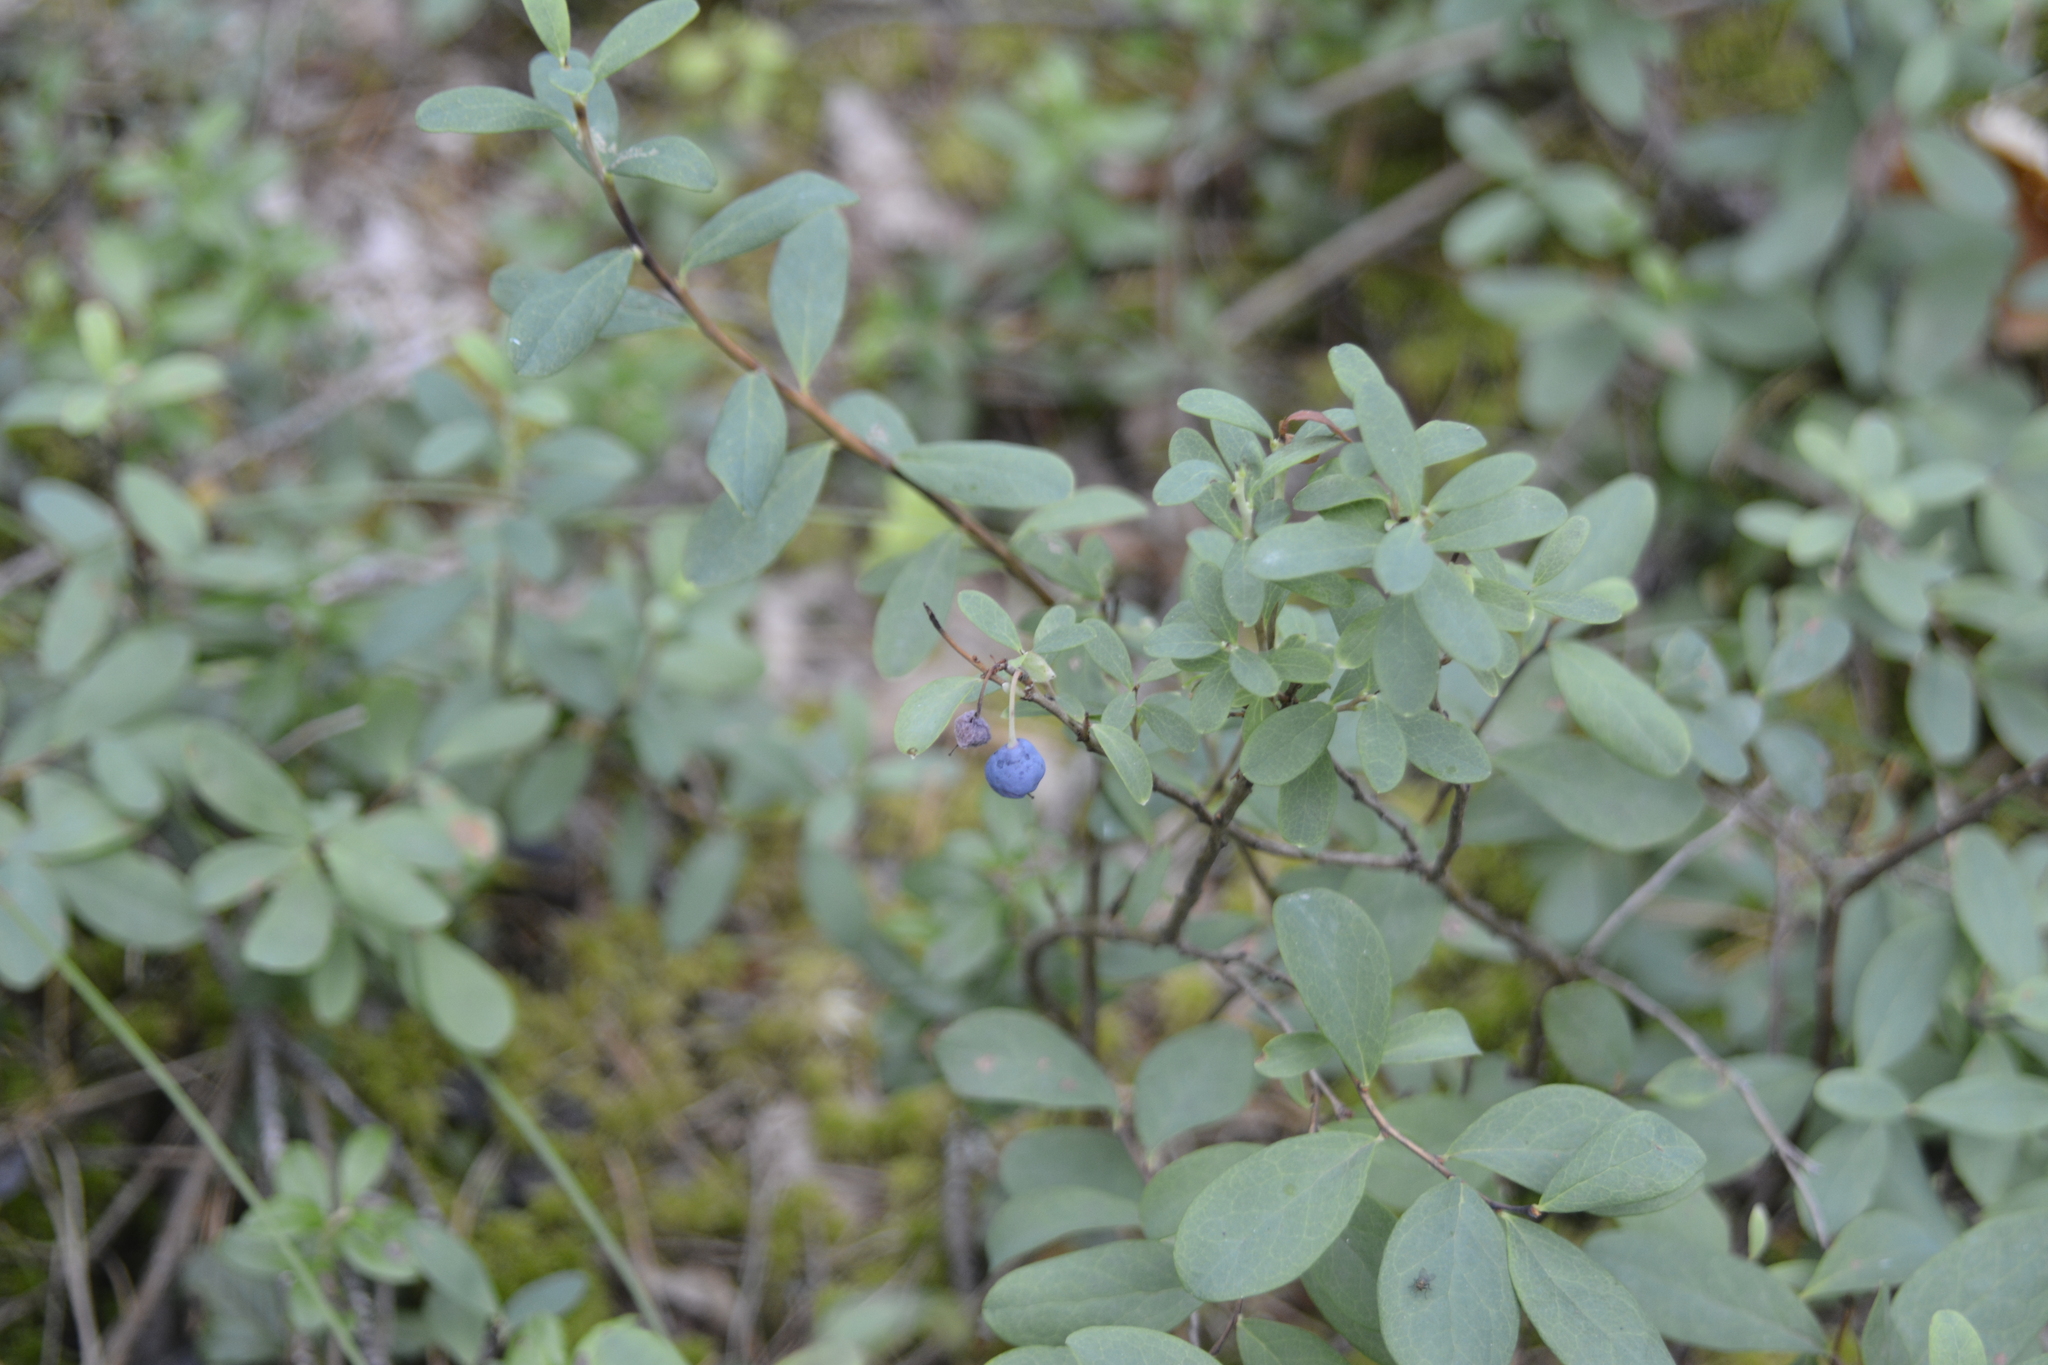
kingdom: Plantae
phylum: Tracheophyta
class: Magnoliopsida
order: Ericales
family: Ericaceae
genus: Vaccinium
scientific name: Vaccinium uliginosum
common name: Bog bilberry
